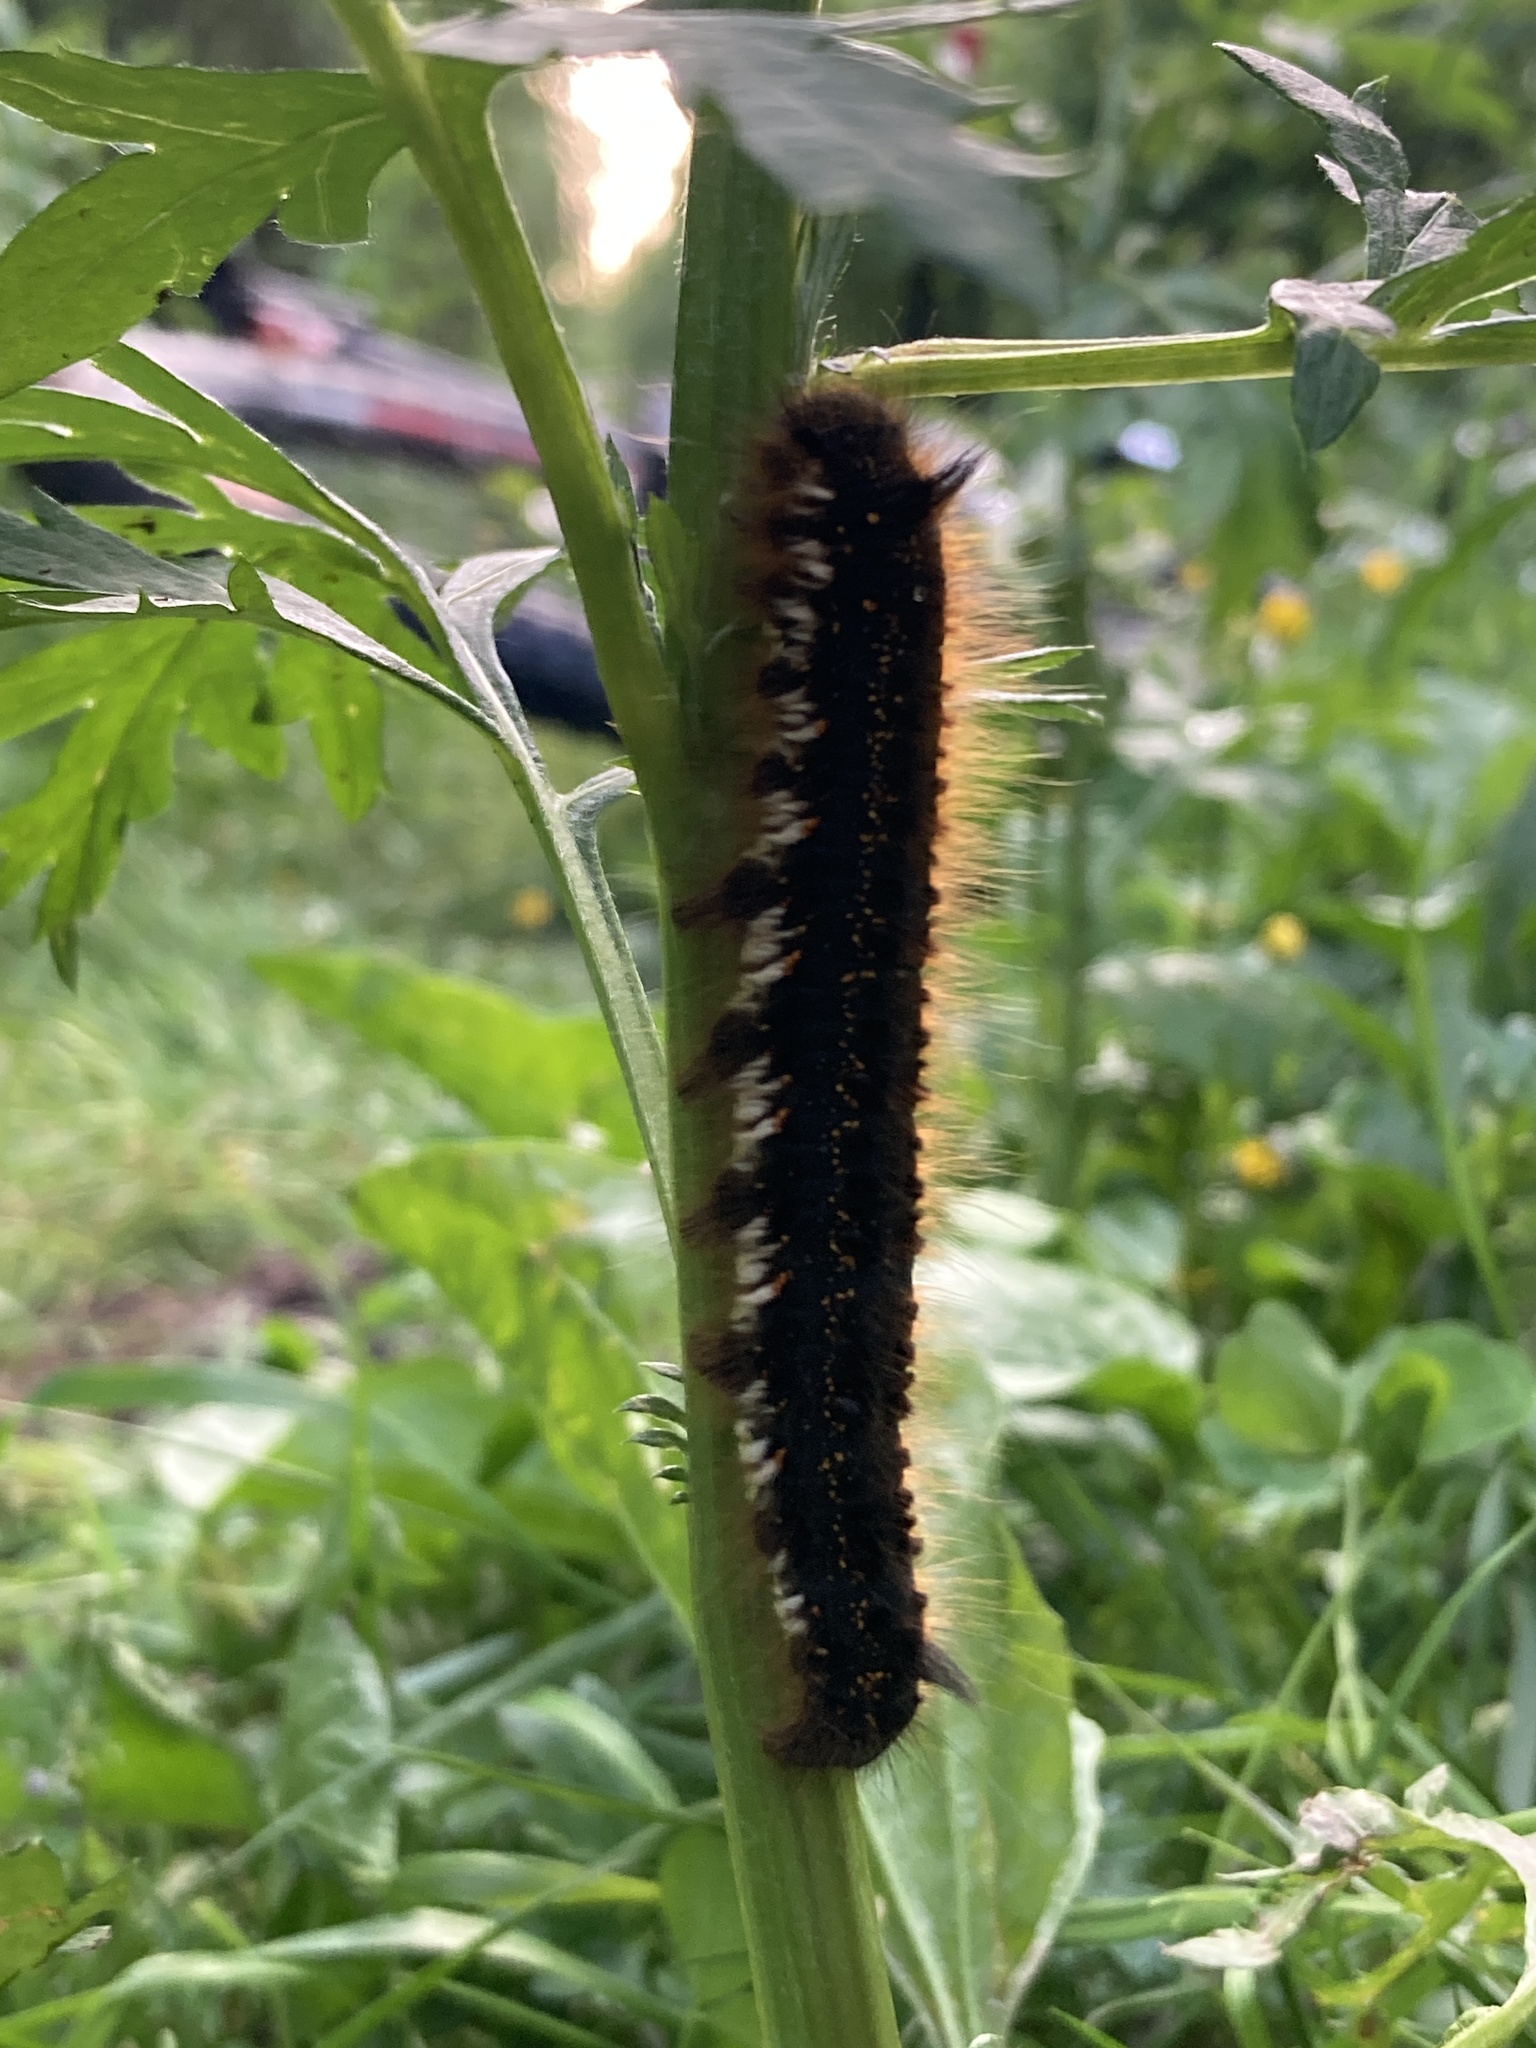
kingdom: Animalia
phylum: Arthropoda
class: Insecta
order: Lepidoptera
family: Lasiocampidae
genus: Euthrix
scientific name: Euthrix potatoria
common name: Drinker
